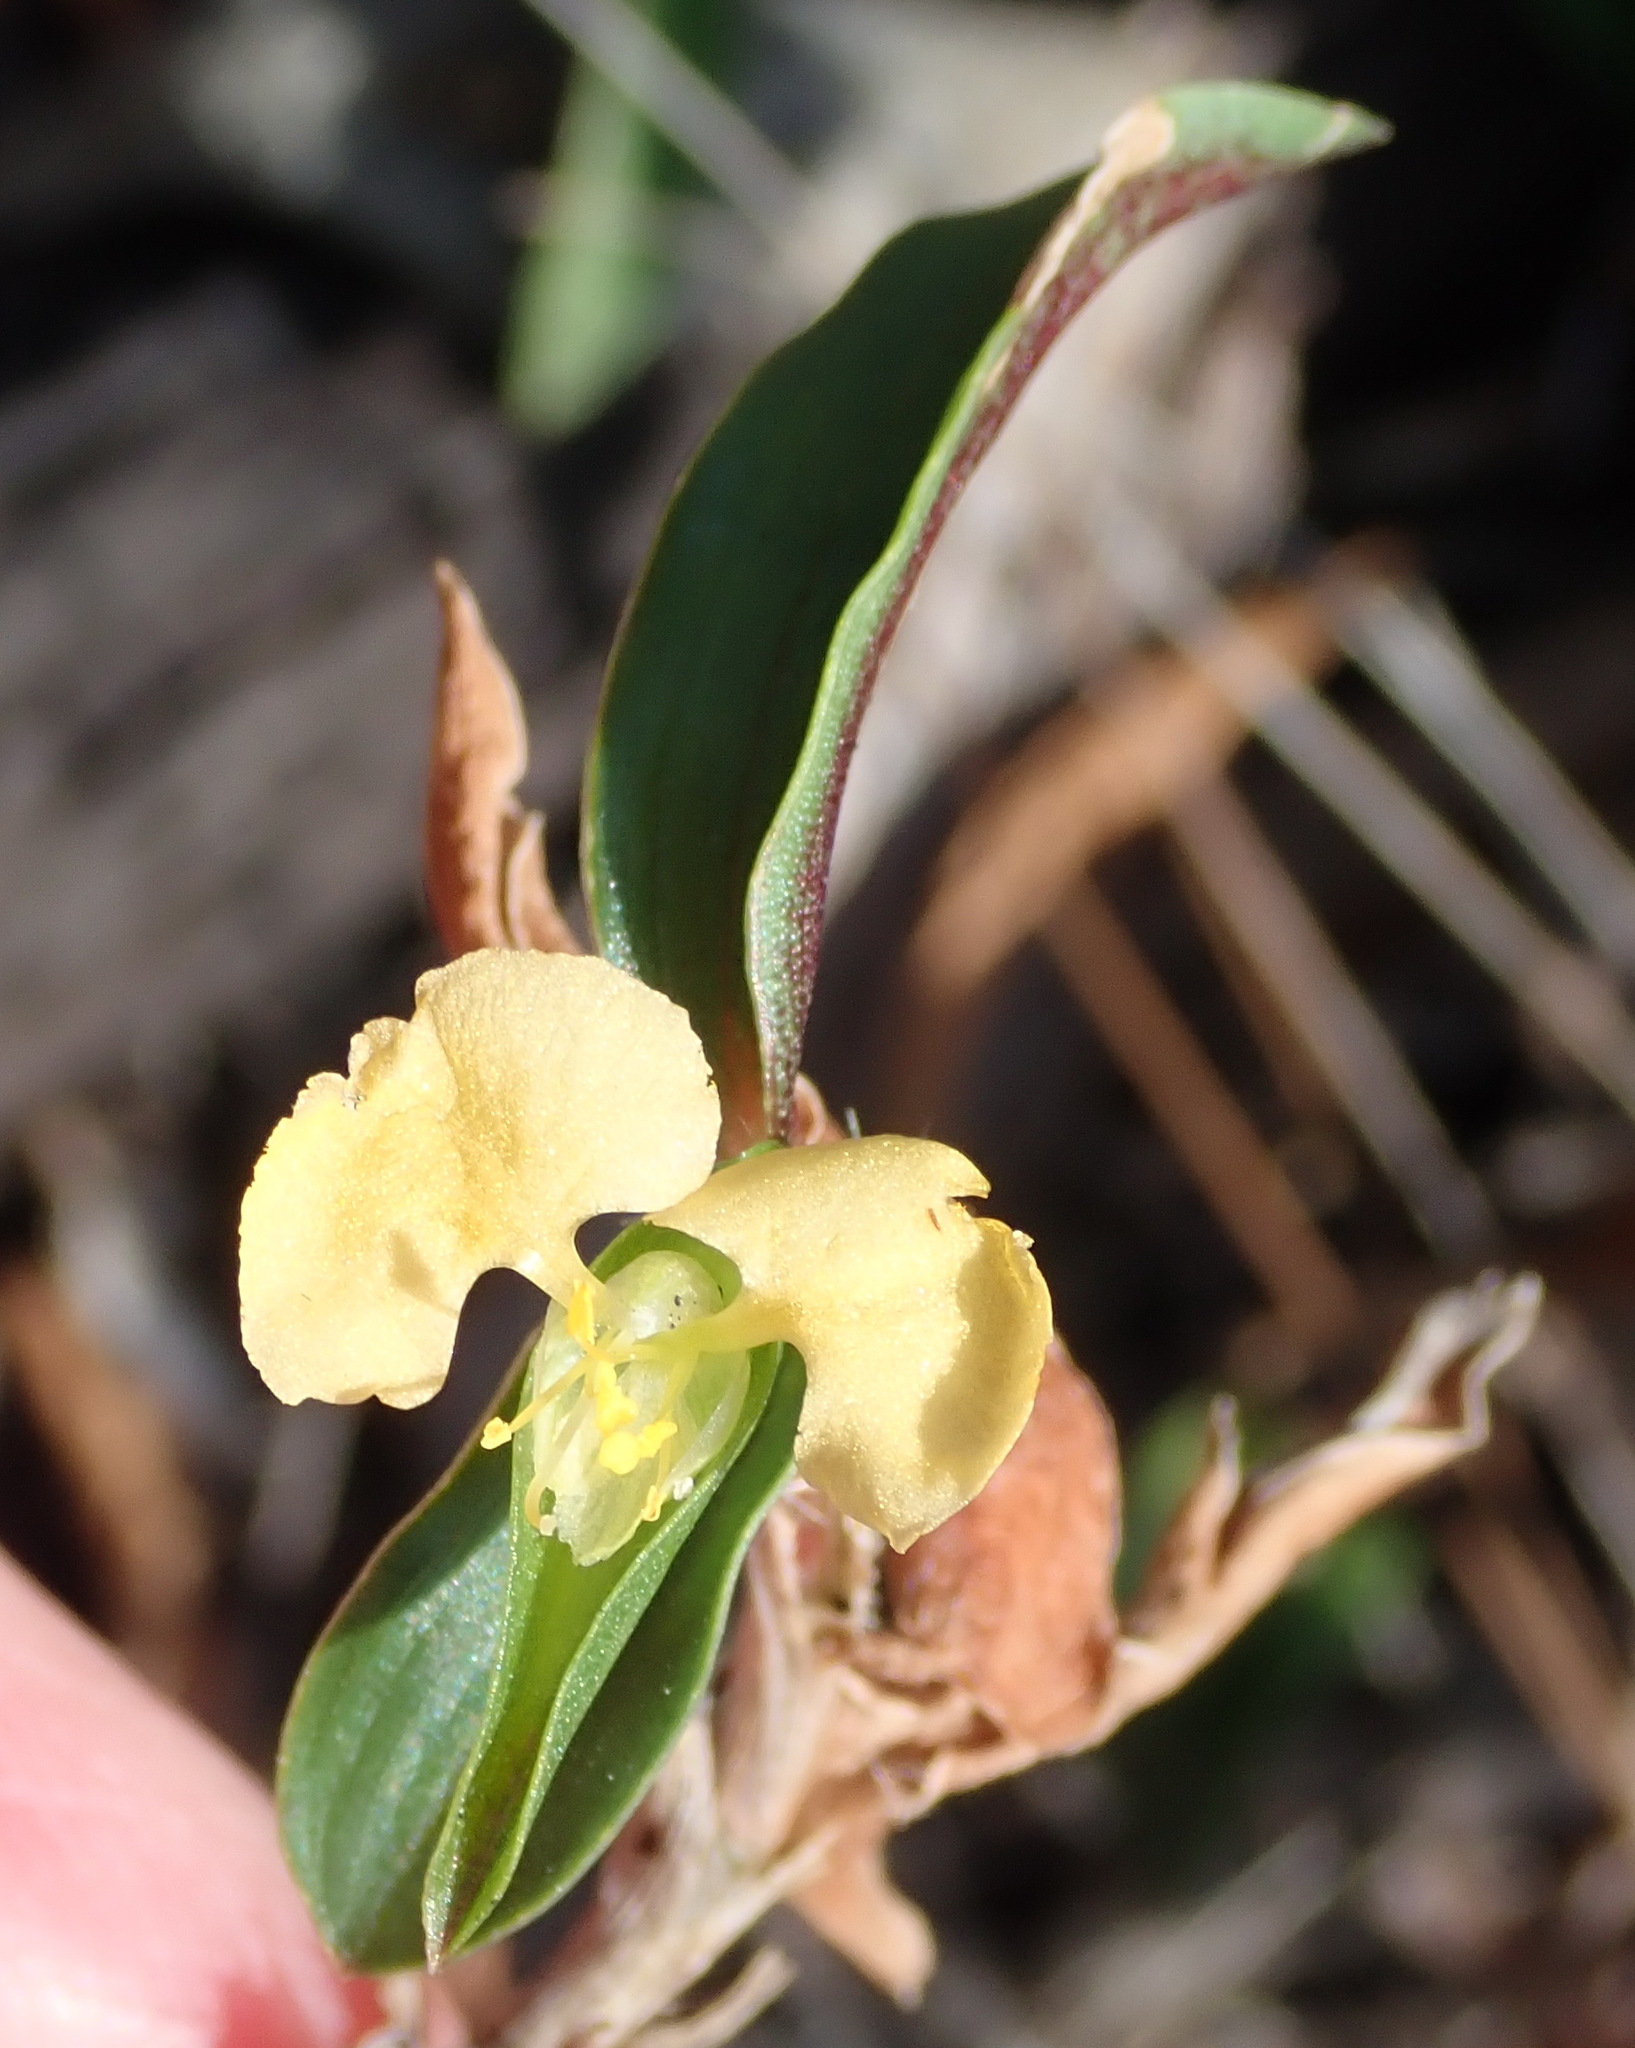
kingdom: Plantae
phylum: Tracheophyta
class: Liliopsida
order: Commelinales
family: Commelinaceae
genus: Commelina
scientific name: Commelina africana
